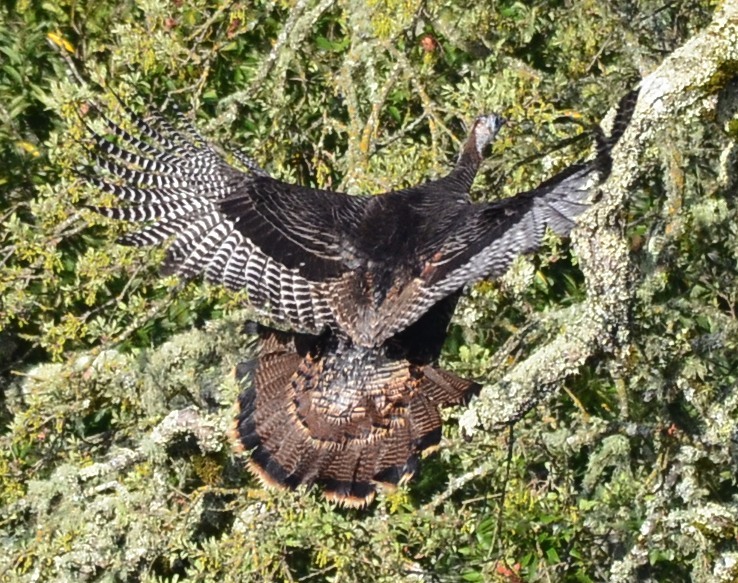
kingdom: Animalia
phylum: Chordata
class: Aves
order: Galliformes
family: Phasianidae
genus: Meleagris
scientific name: Meleagris gallopavo
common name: Wild turkey
